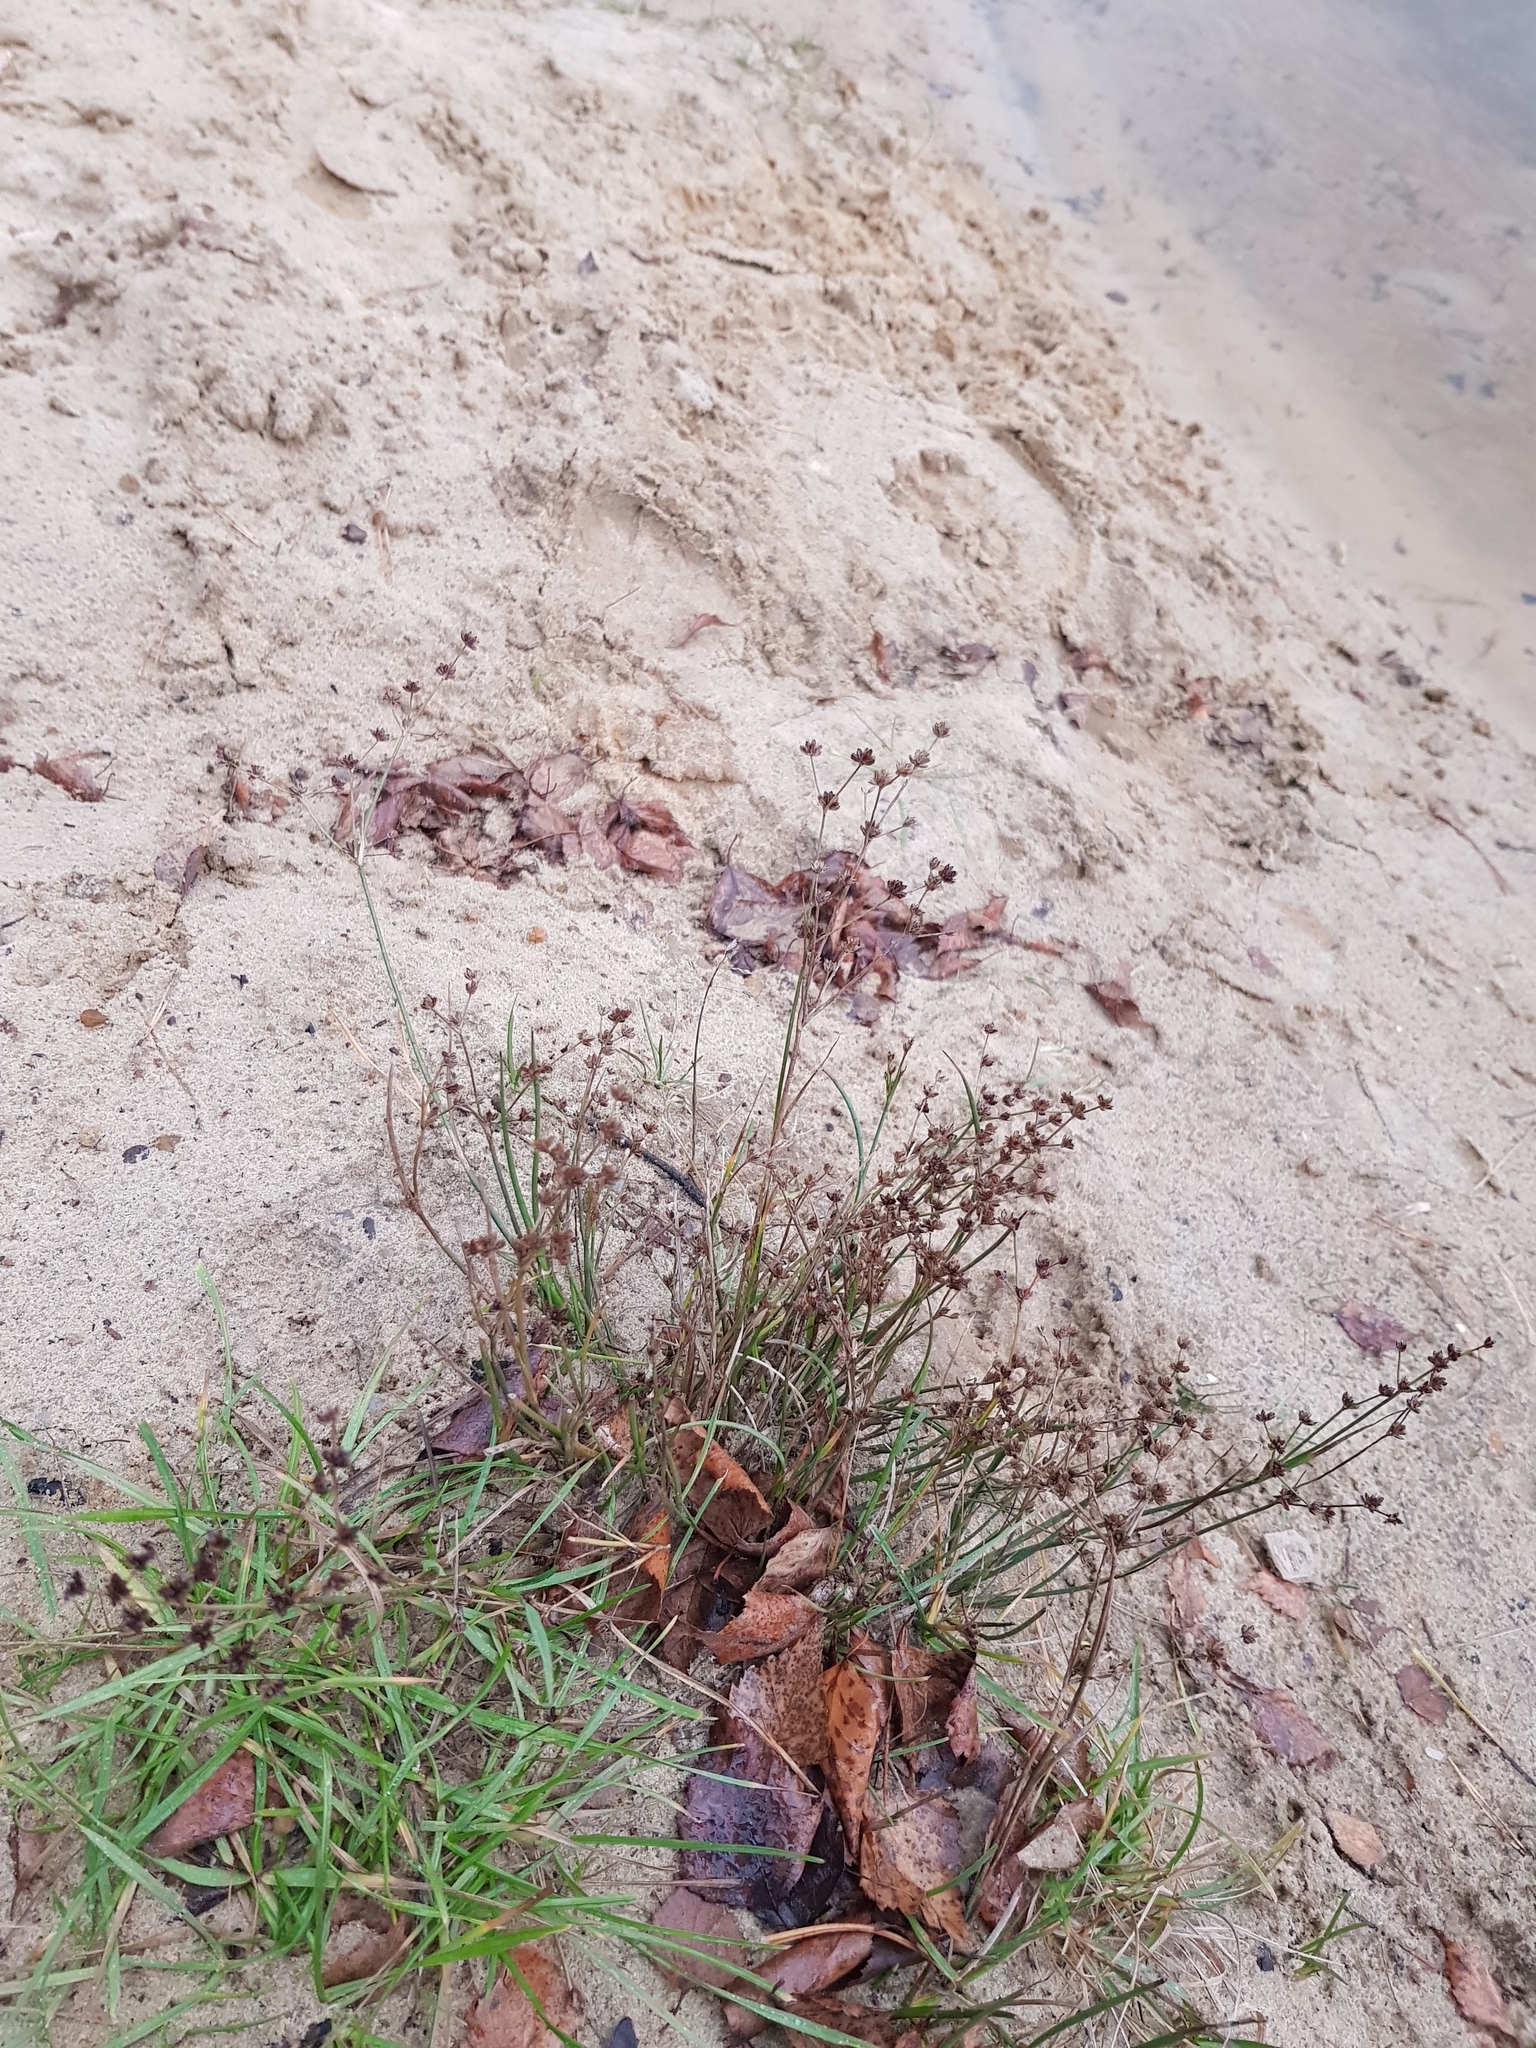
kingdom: Plantae
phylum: Tracheophyta
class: Liliopsida
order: Poales
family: Juncaceae
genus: Juncus
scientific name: Juncus articulatus
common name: Jointed rush
